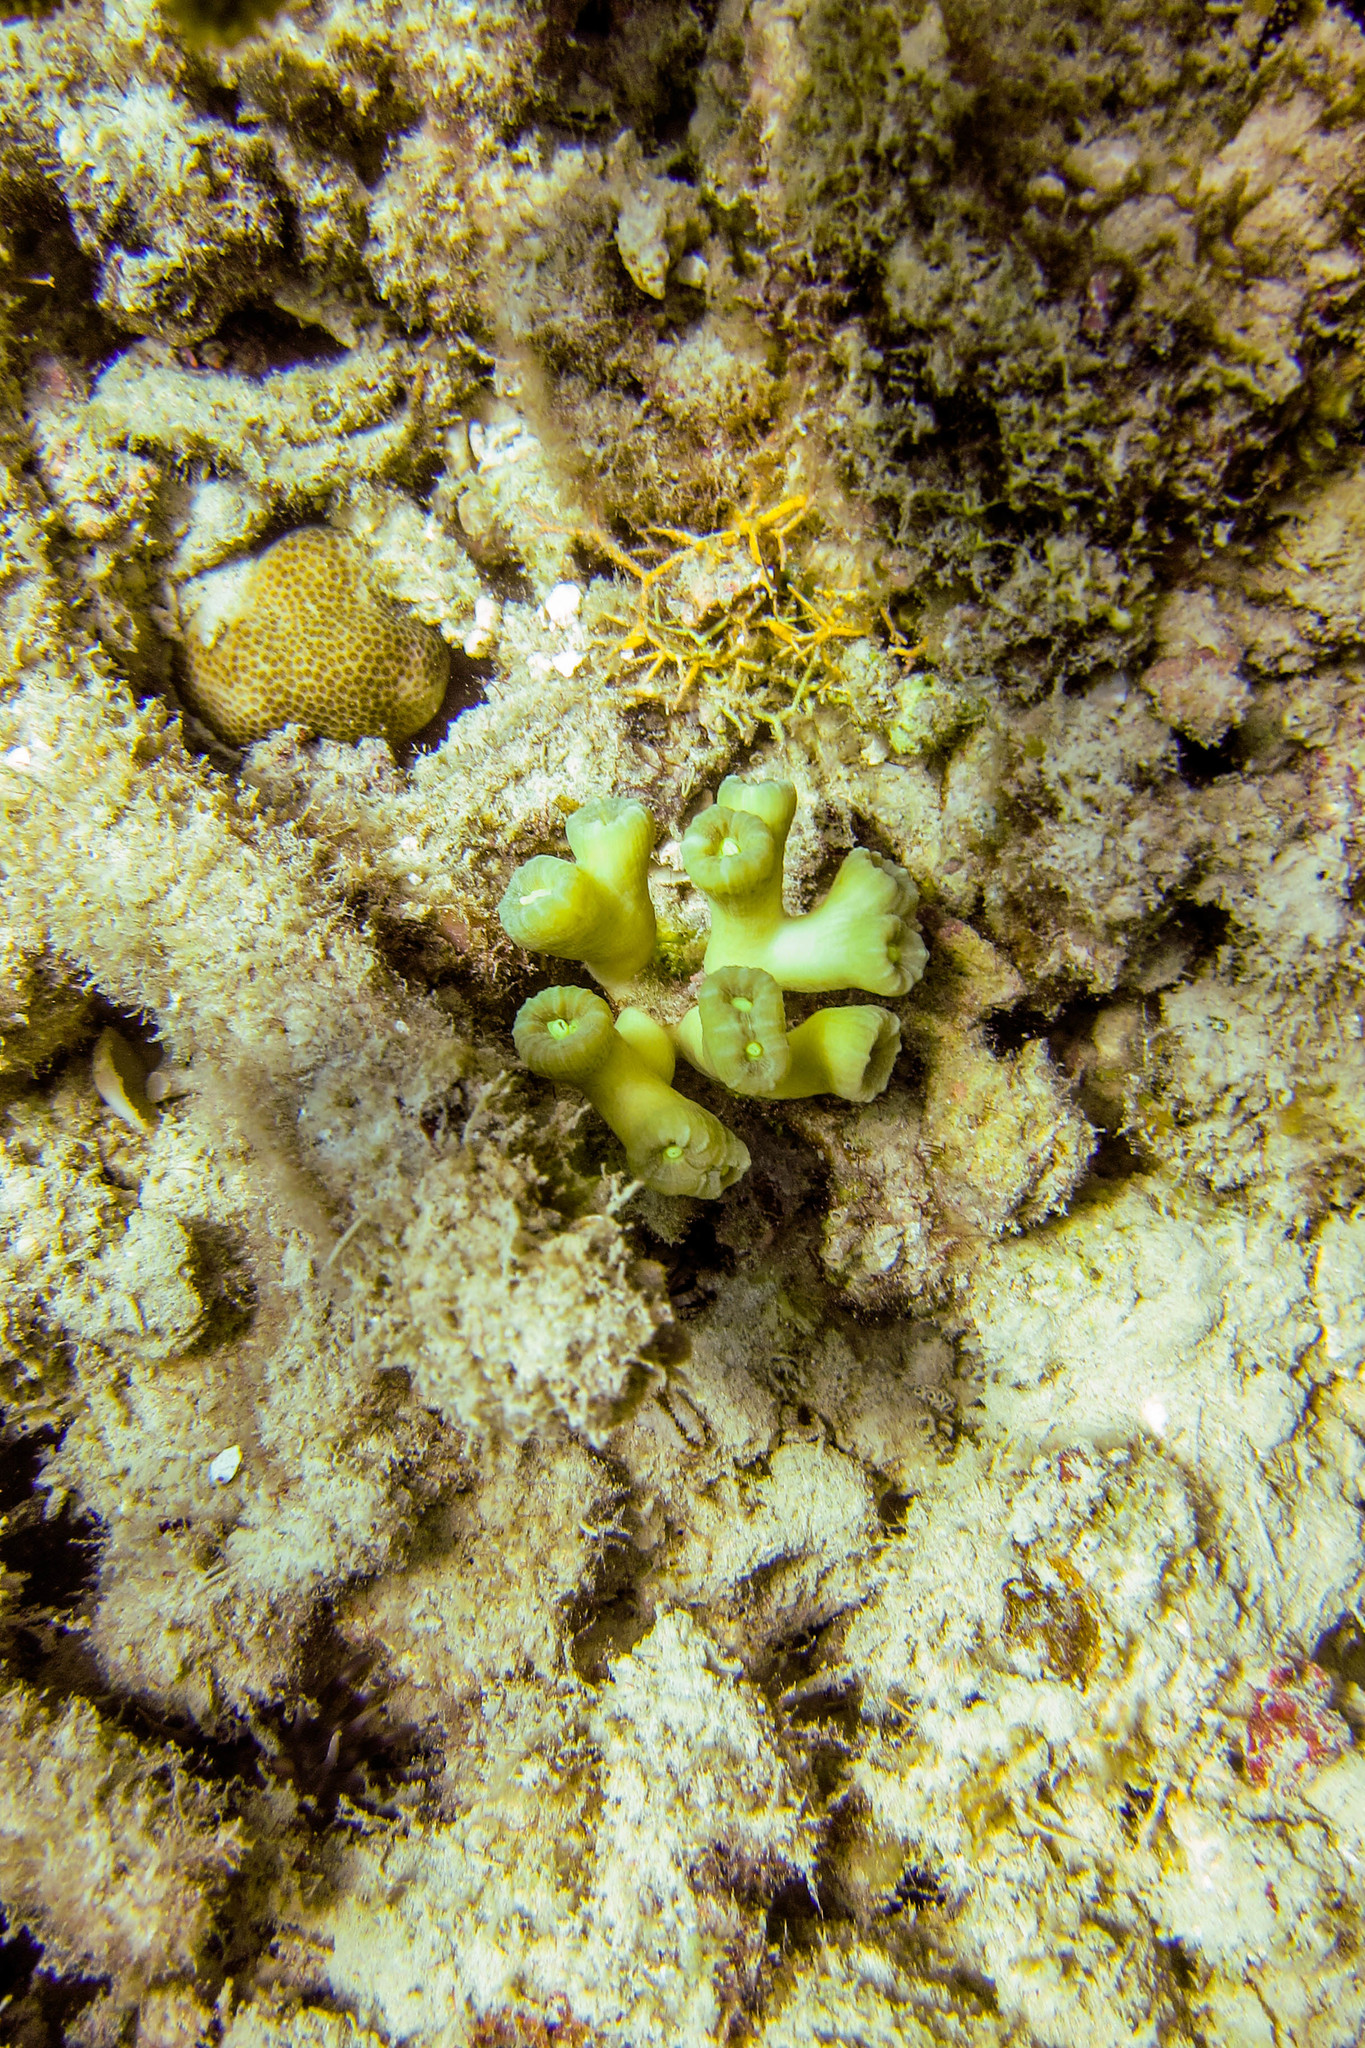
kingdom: Animalia
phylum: Cnidaria
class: Anthozoa
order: Scleractinia
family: Merulinidae
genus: Astraeosmilia
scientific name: Astraeosmilia curvata
